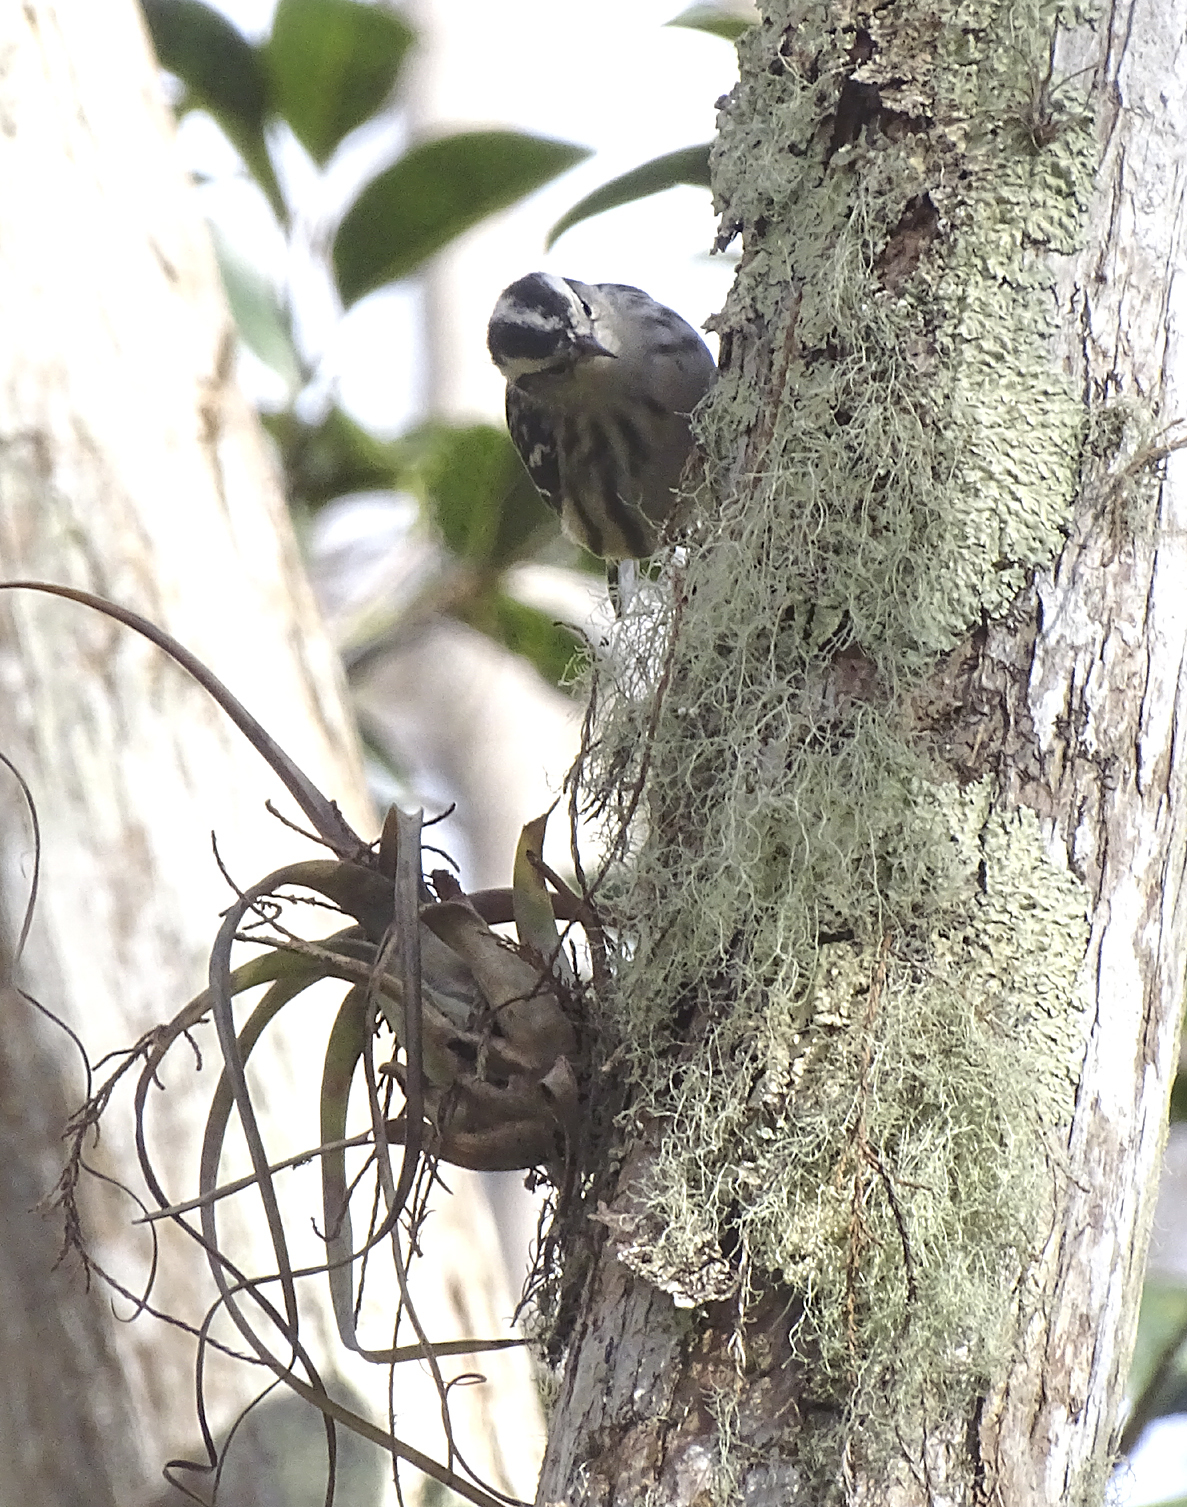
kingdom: Animalia
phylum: Chordata
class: Aves
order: Passeriformes
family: Parulidae
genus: Mniotilta
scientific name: Mniotilta varia
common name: Black-and-white warbler
